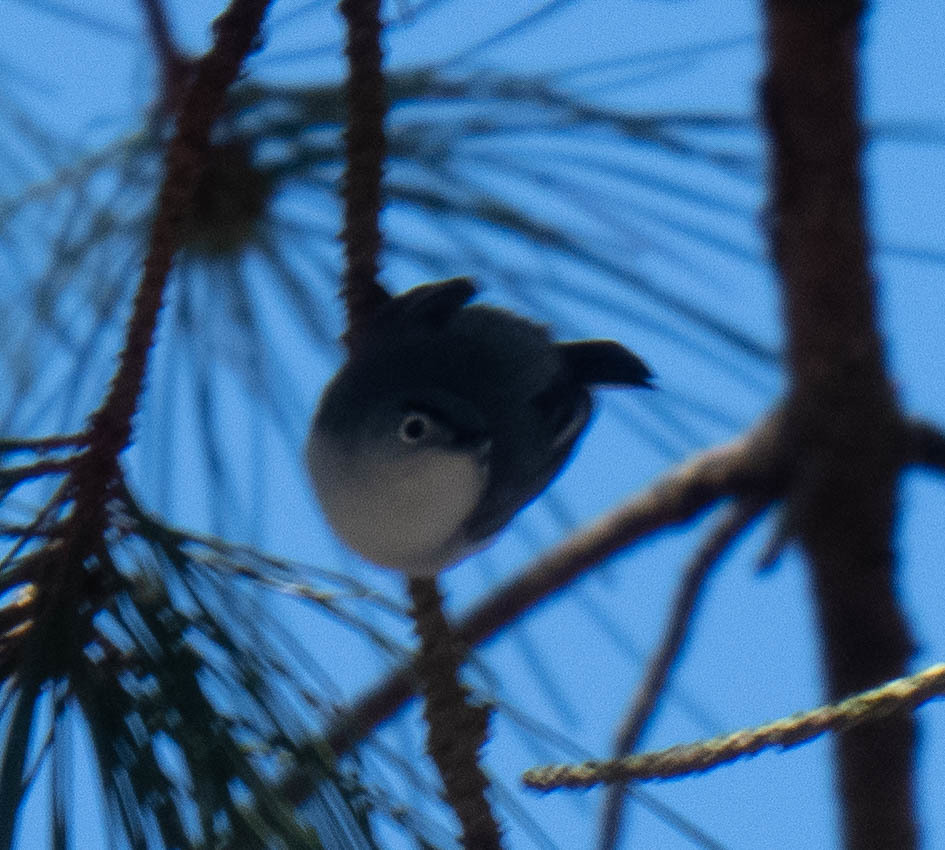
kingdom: Animalia
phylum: Chordata
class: Aves
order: Passeriformes
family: Polioptilidae
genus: Polioptila
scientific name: Polioptila caerulea
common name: Blue-gray gnatcatcher
